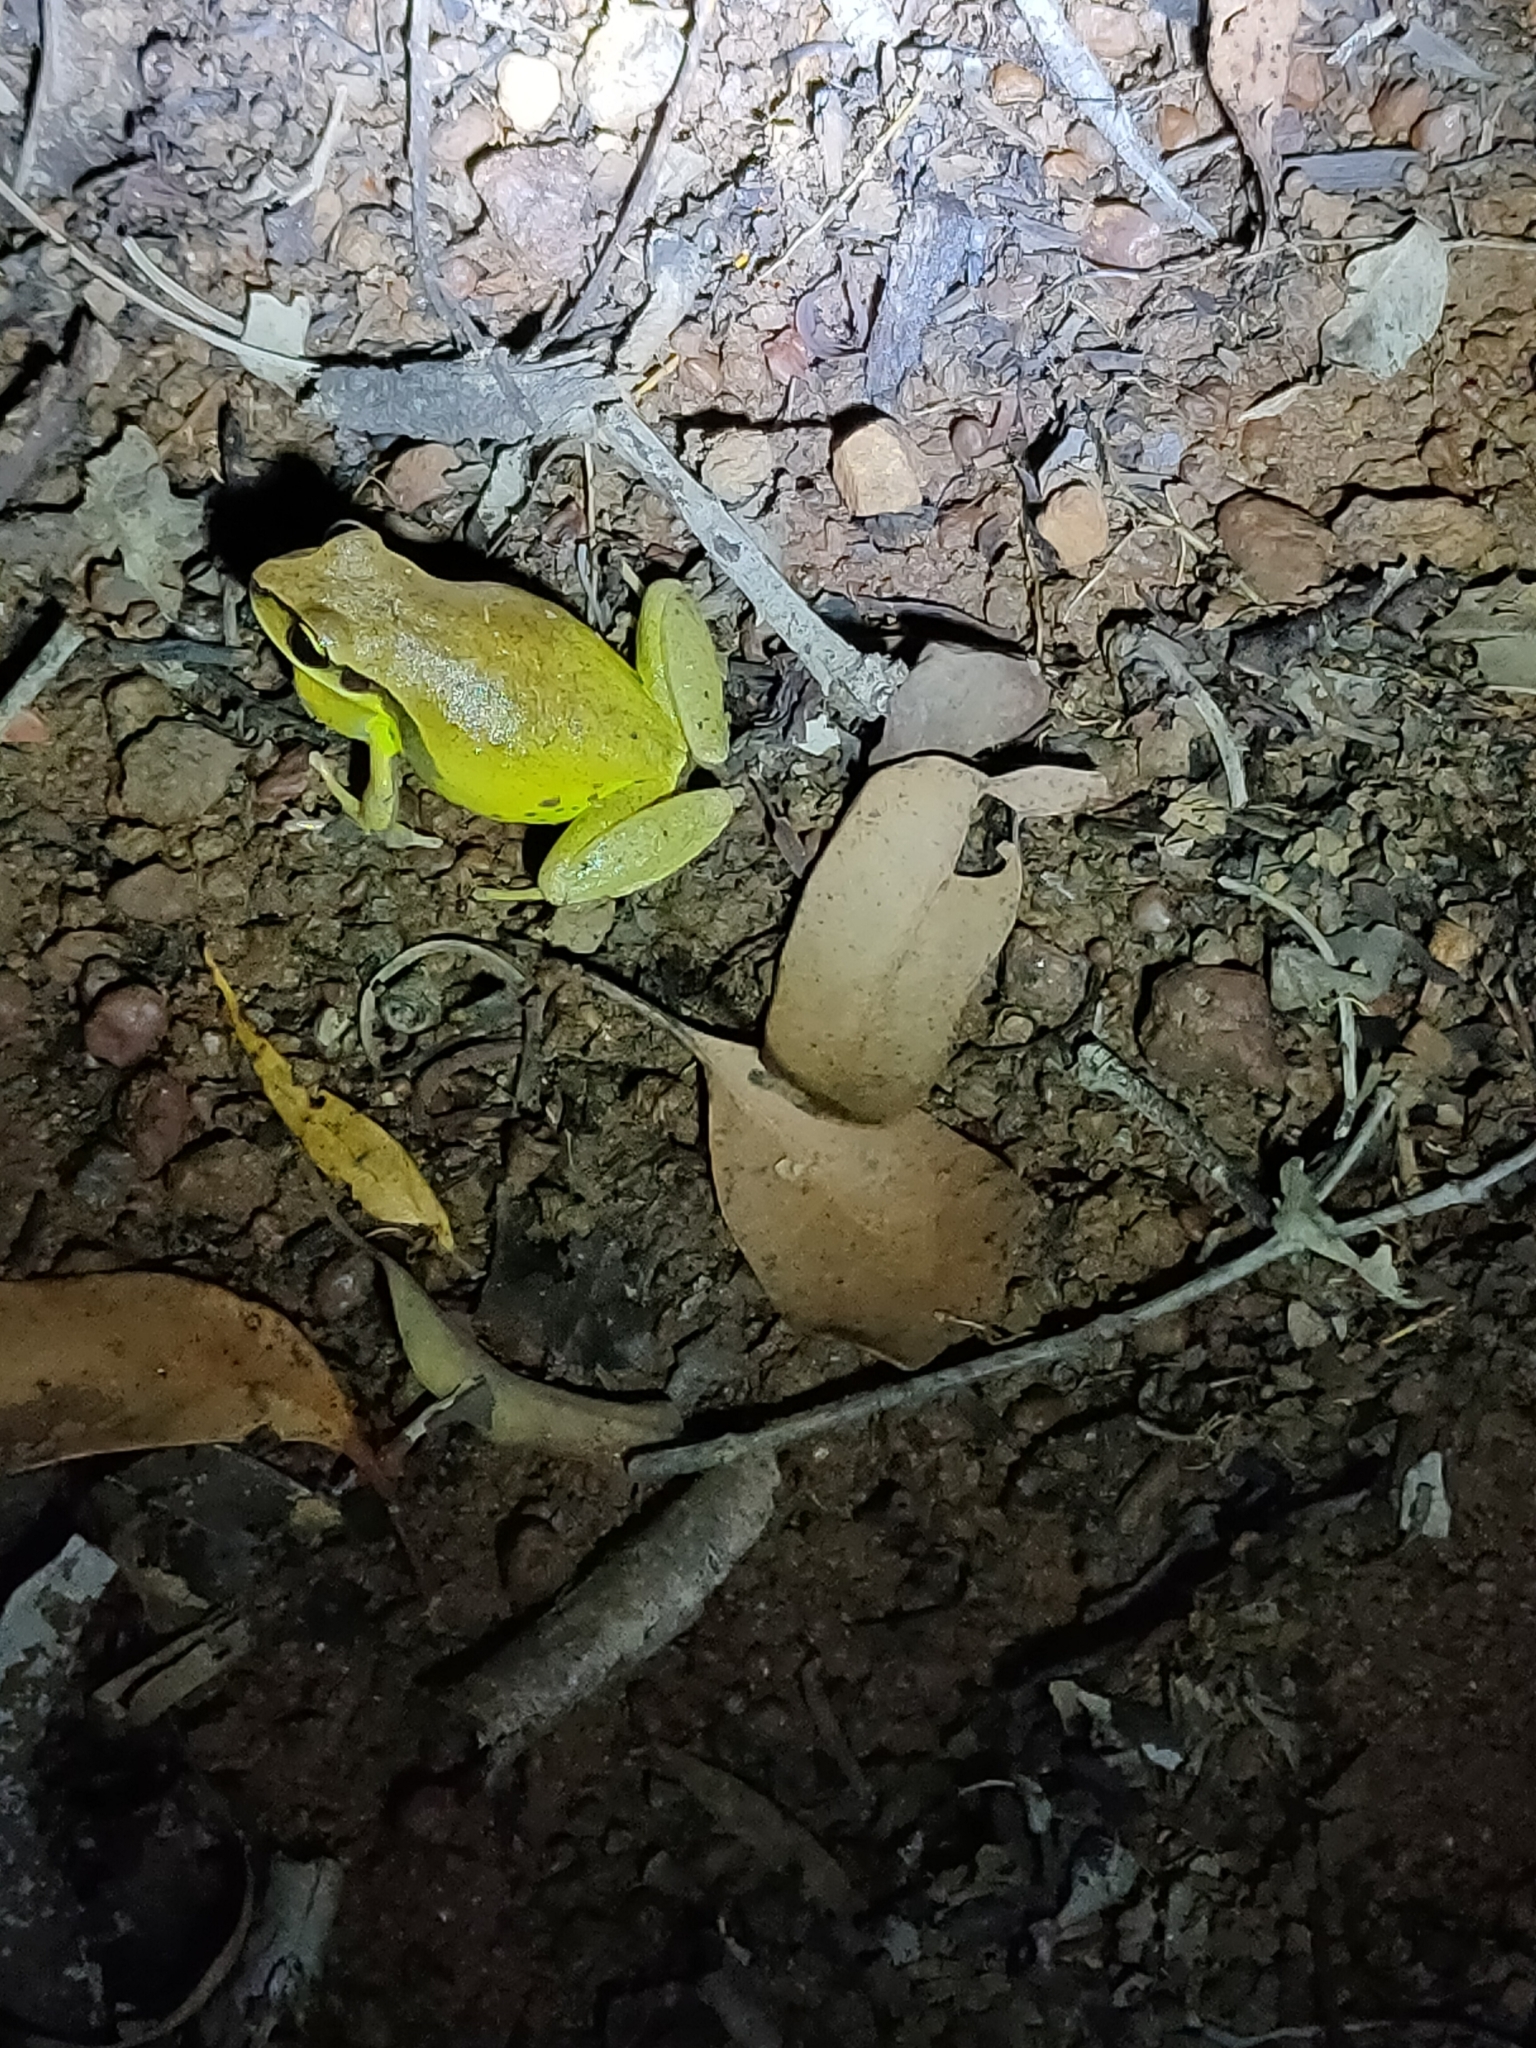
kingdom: Animalia
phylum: Chordata
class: Amphibia
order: Anura
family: Pelodryadidae
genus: Nyctimystes
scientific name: Nyctimystes brevipalmatus
